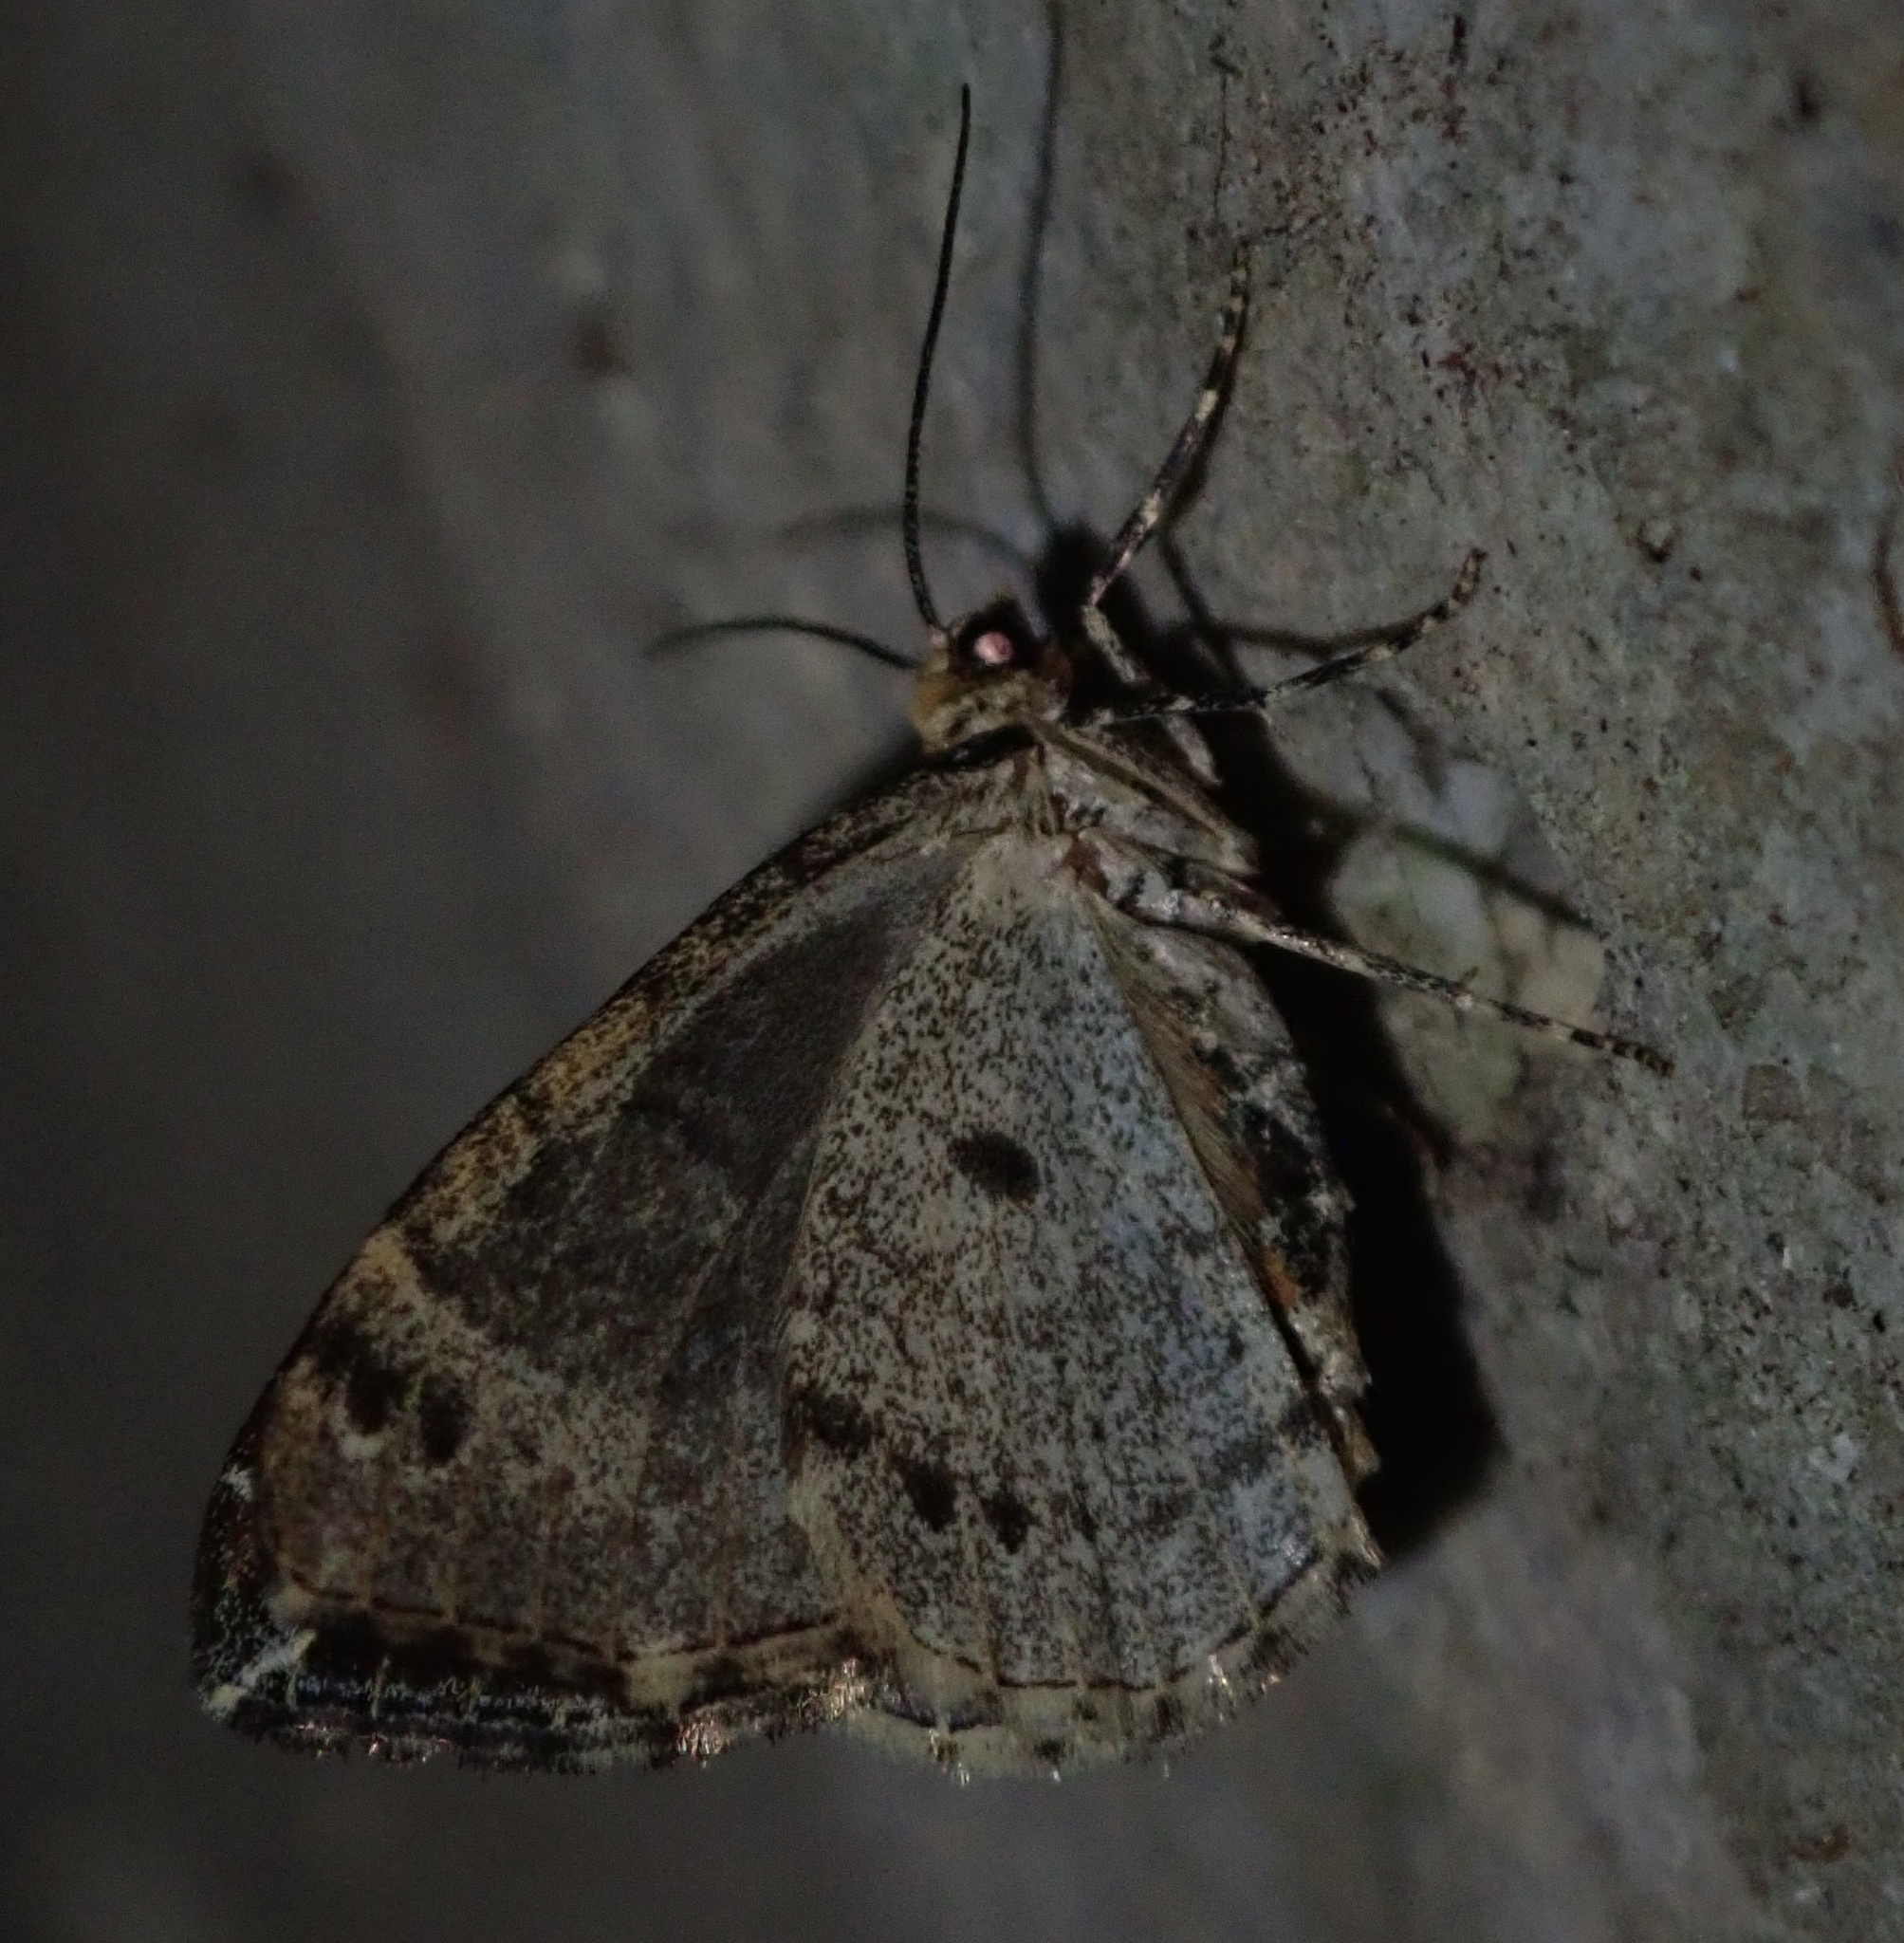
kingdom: Animalia
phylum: Arthropoda
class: Insecta
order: Lepidoptera
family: Geometridae
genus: Ecliptopera
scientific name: Ecliptopera silaceata
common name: Small phoenix
